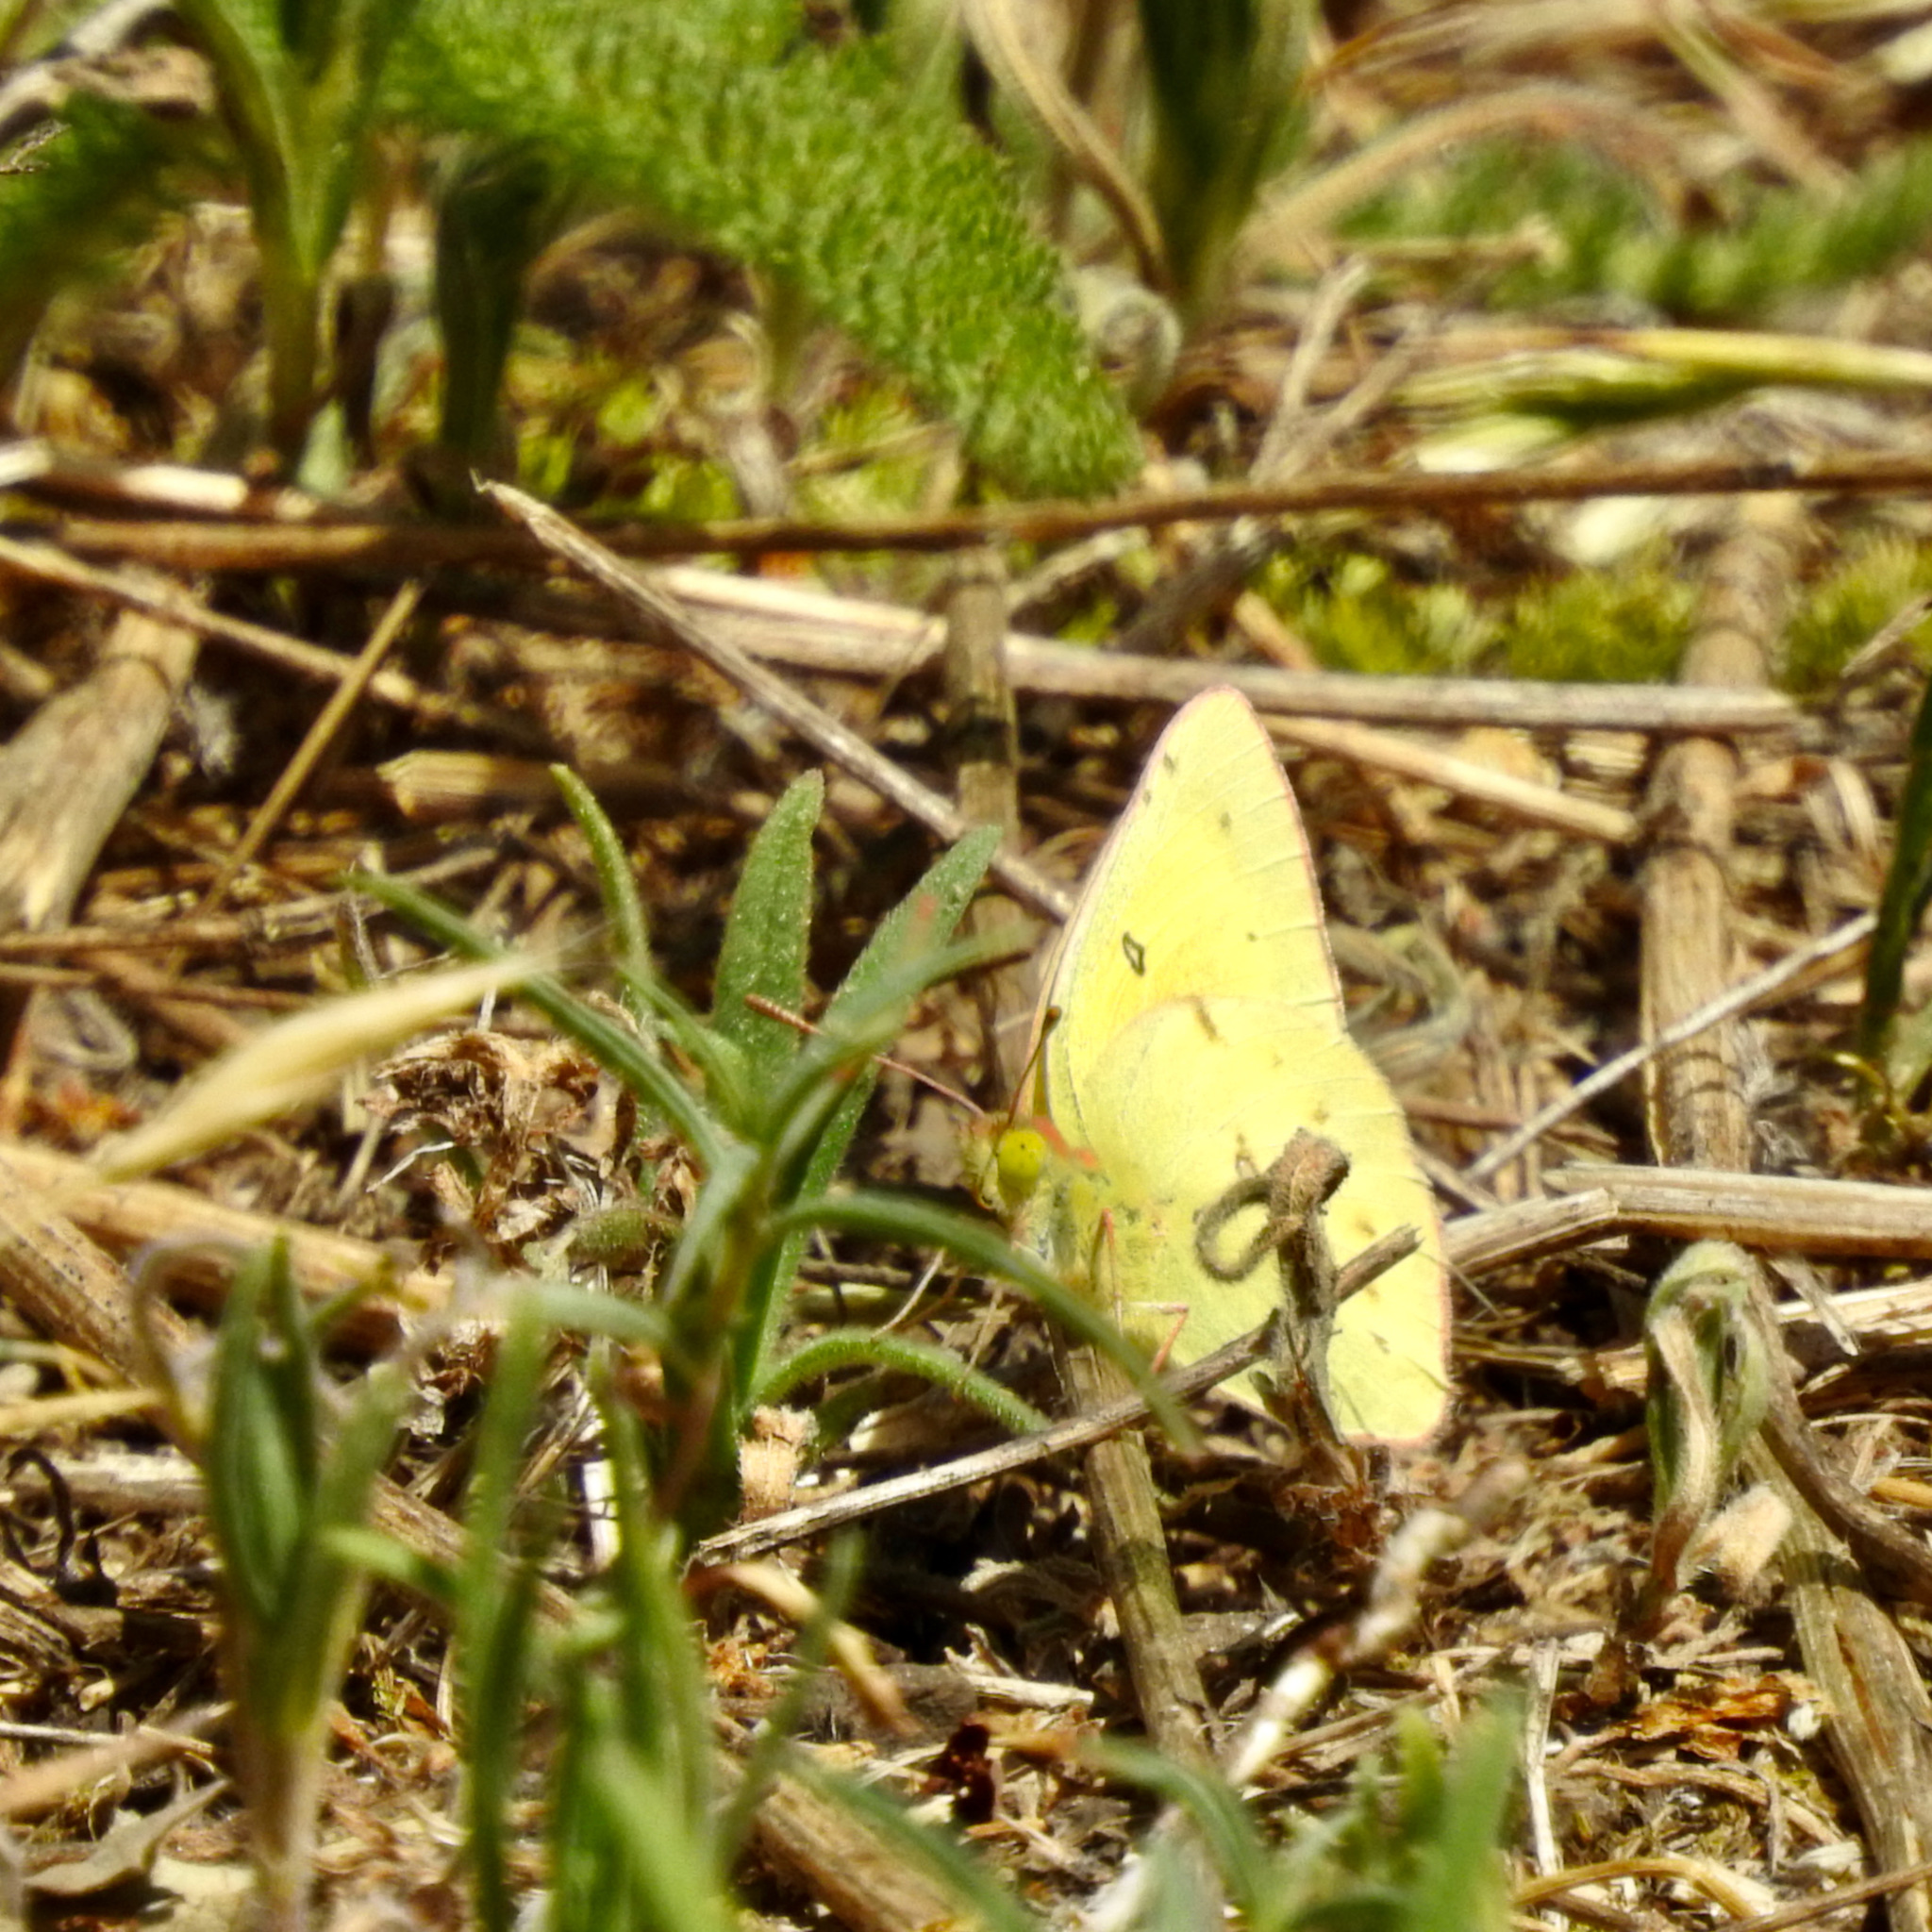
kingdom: Animalia
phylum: Arthropoda
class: Insecta
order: Lepidoptera
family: Pieridae
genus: Colias
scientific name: Colias eurytheme
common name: Alfalfa butterfly
